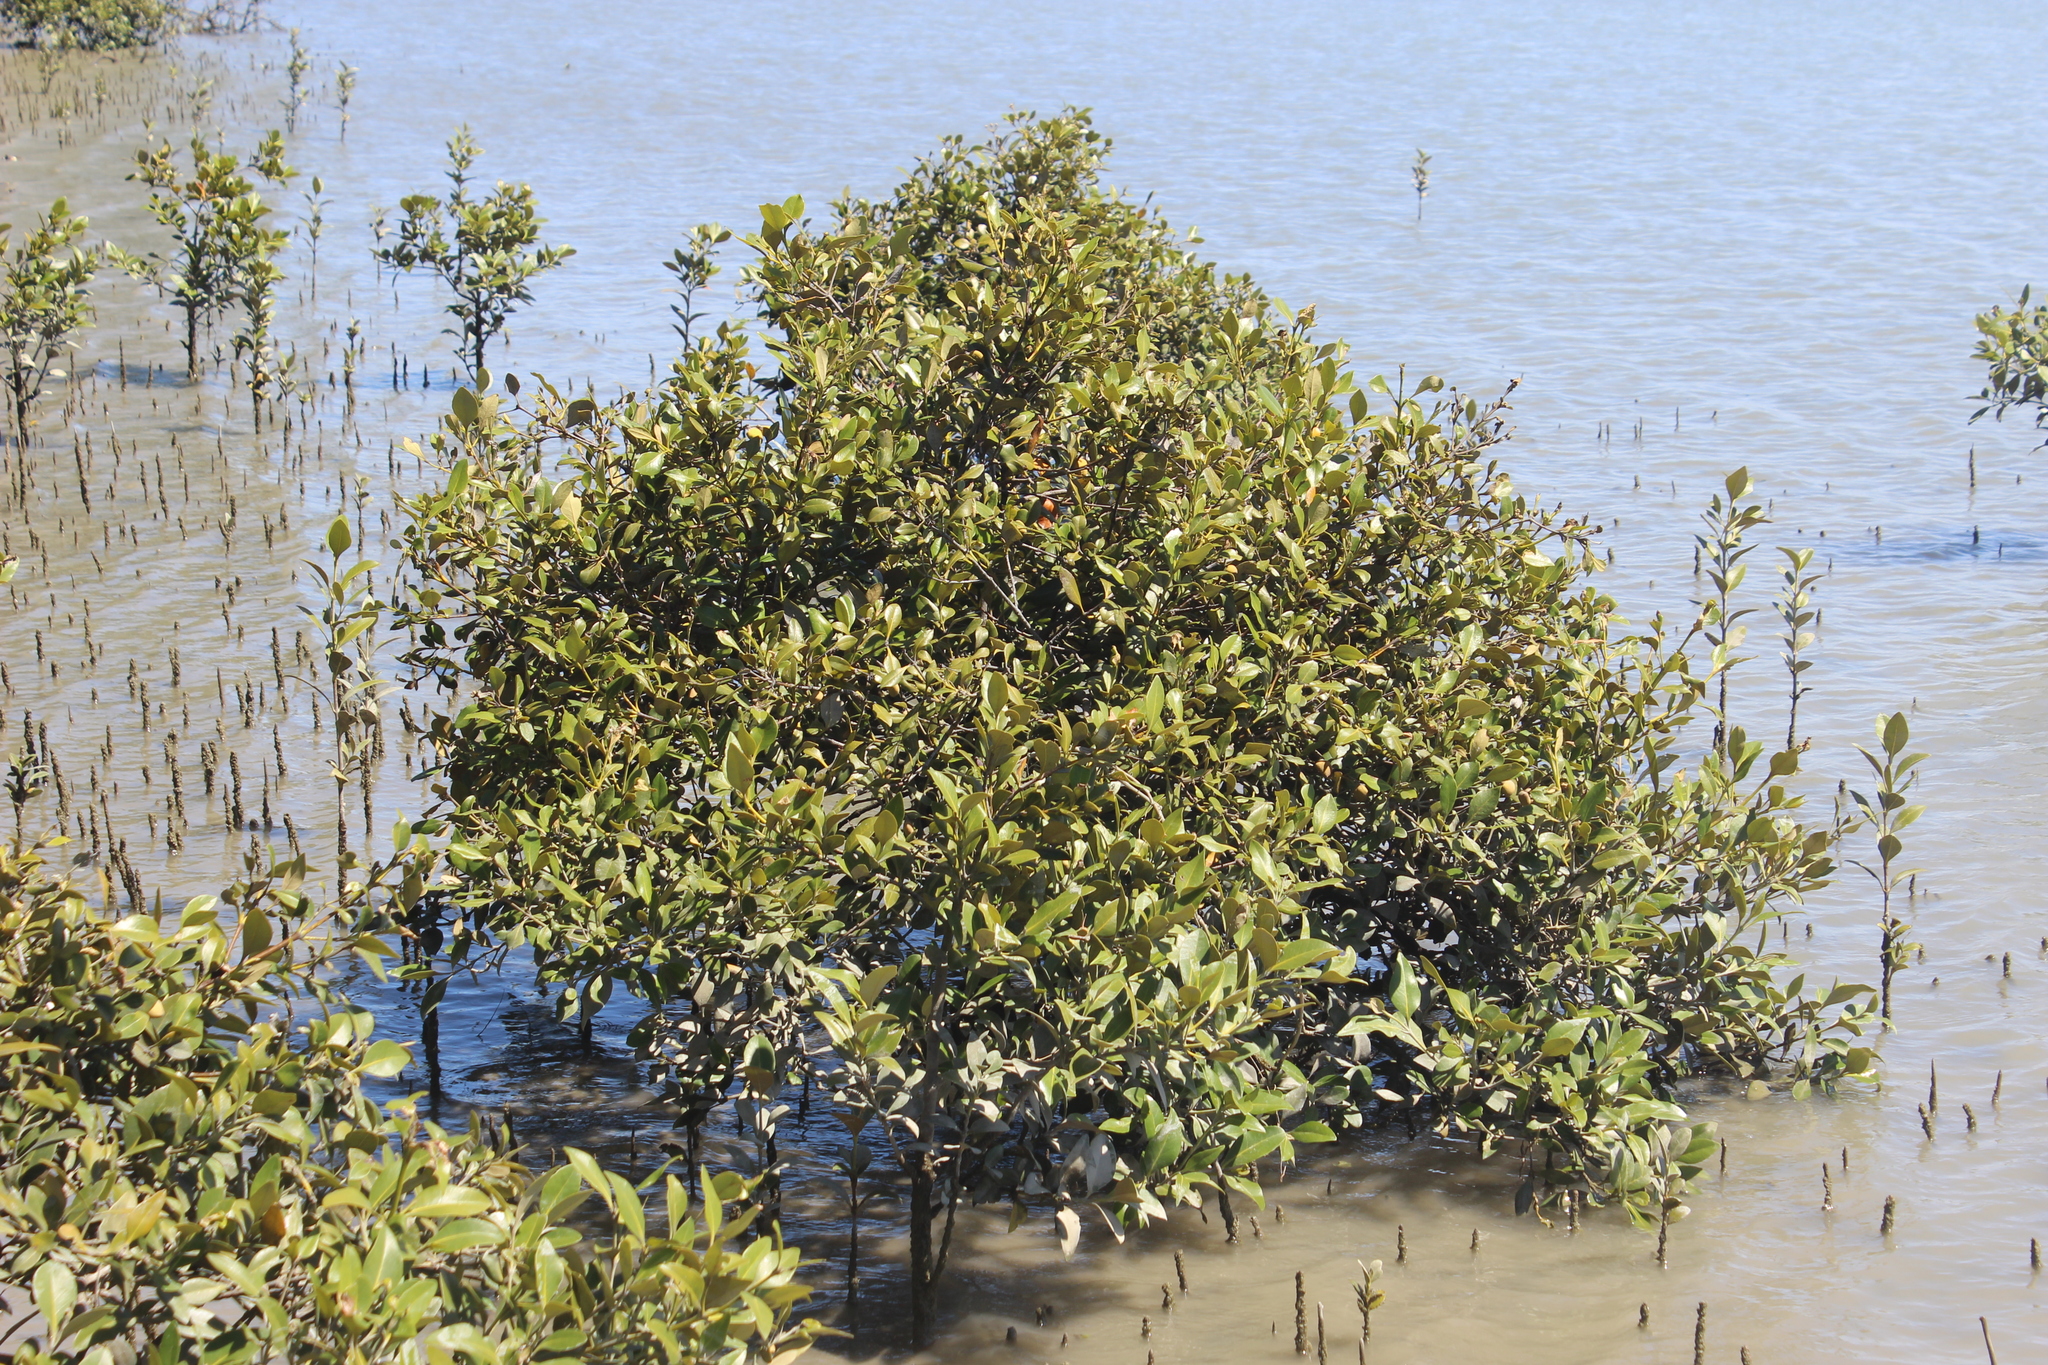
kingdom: Plantae
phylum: Tracheophyta
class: Magnoliopsida
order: Lamiales
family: Acanthaceae
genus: Avicennia
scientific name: Avicennia marina
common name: Gray mangrove
